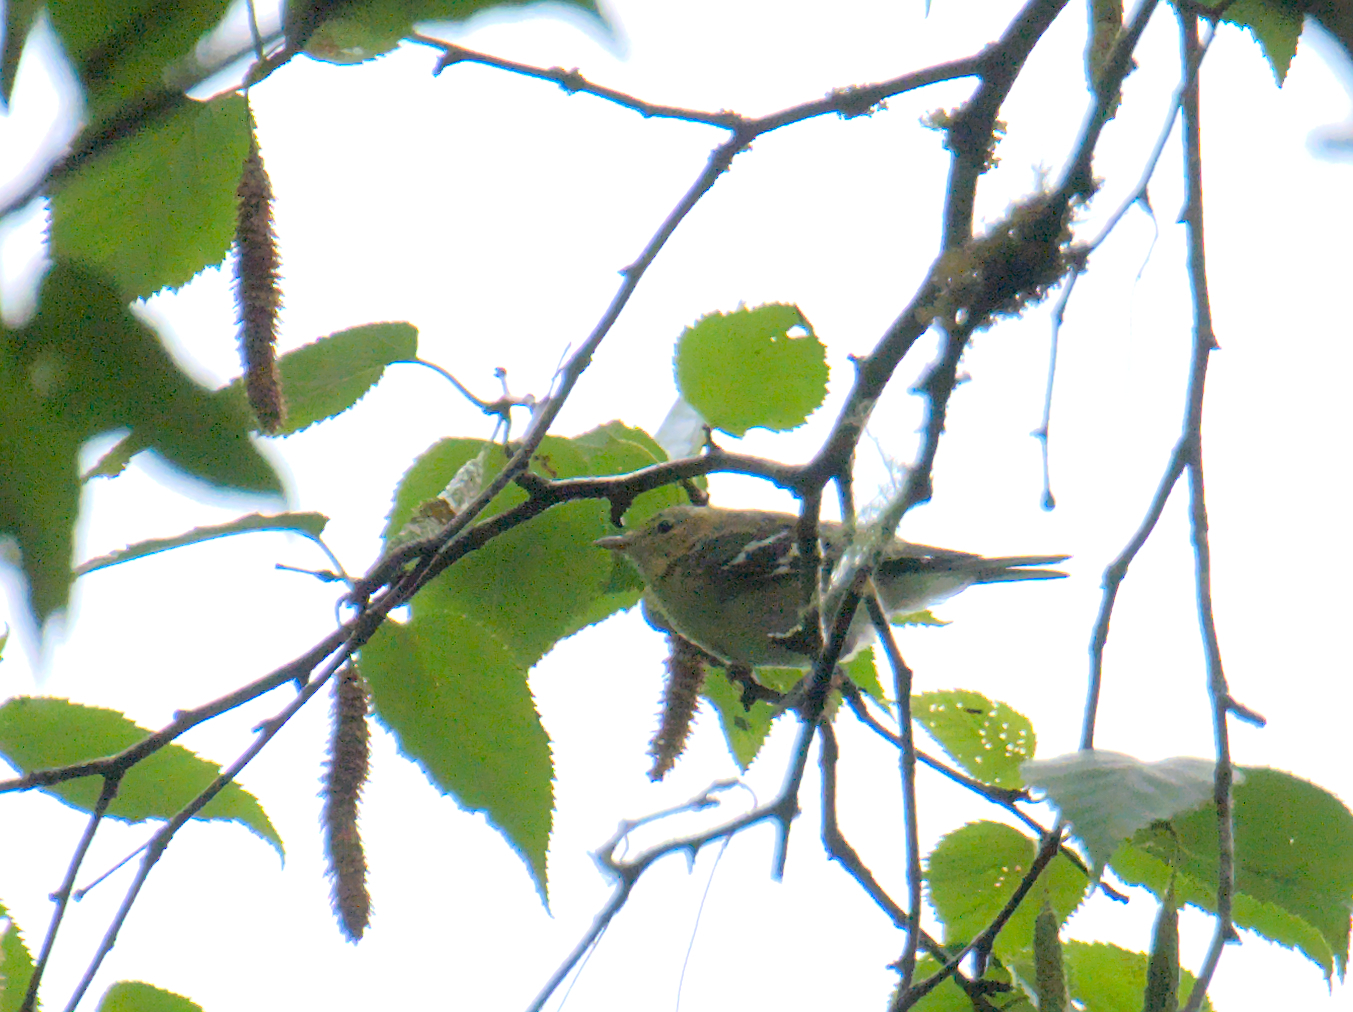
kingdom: Animalia
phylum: Chordata
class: Aves
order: Passeriformes
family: Parulidae
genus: Setophaga
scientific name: Setophaga castanea
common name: Bay-breasted warbler
